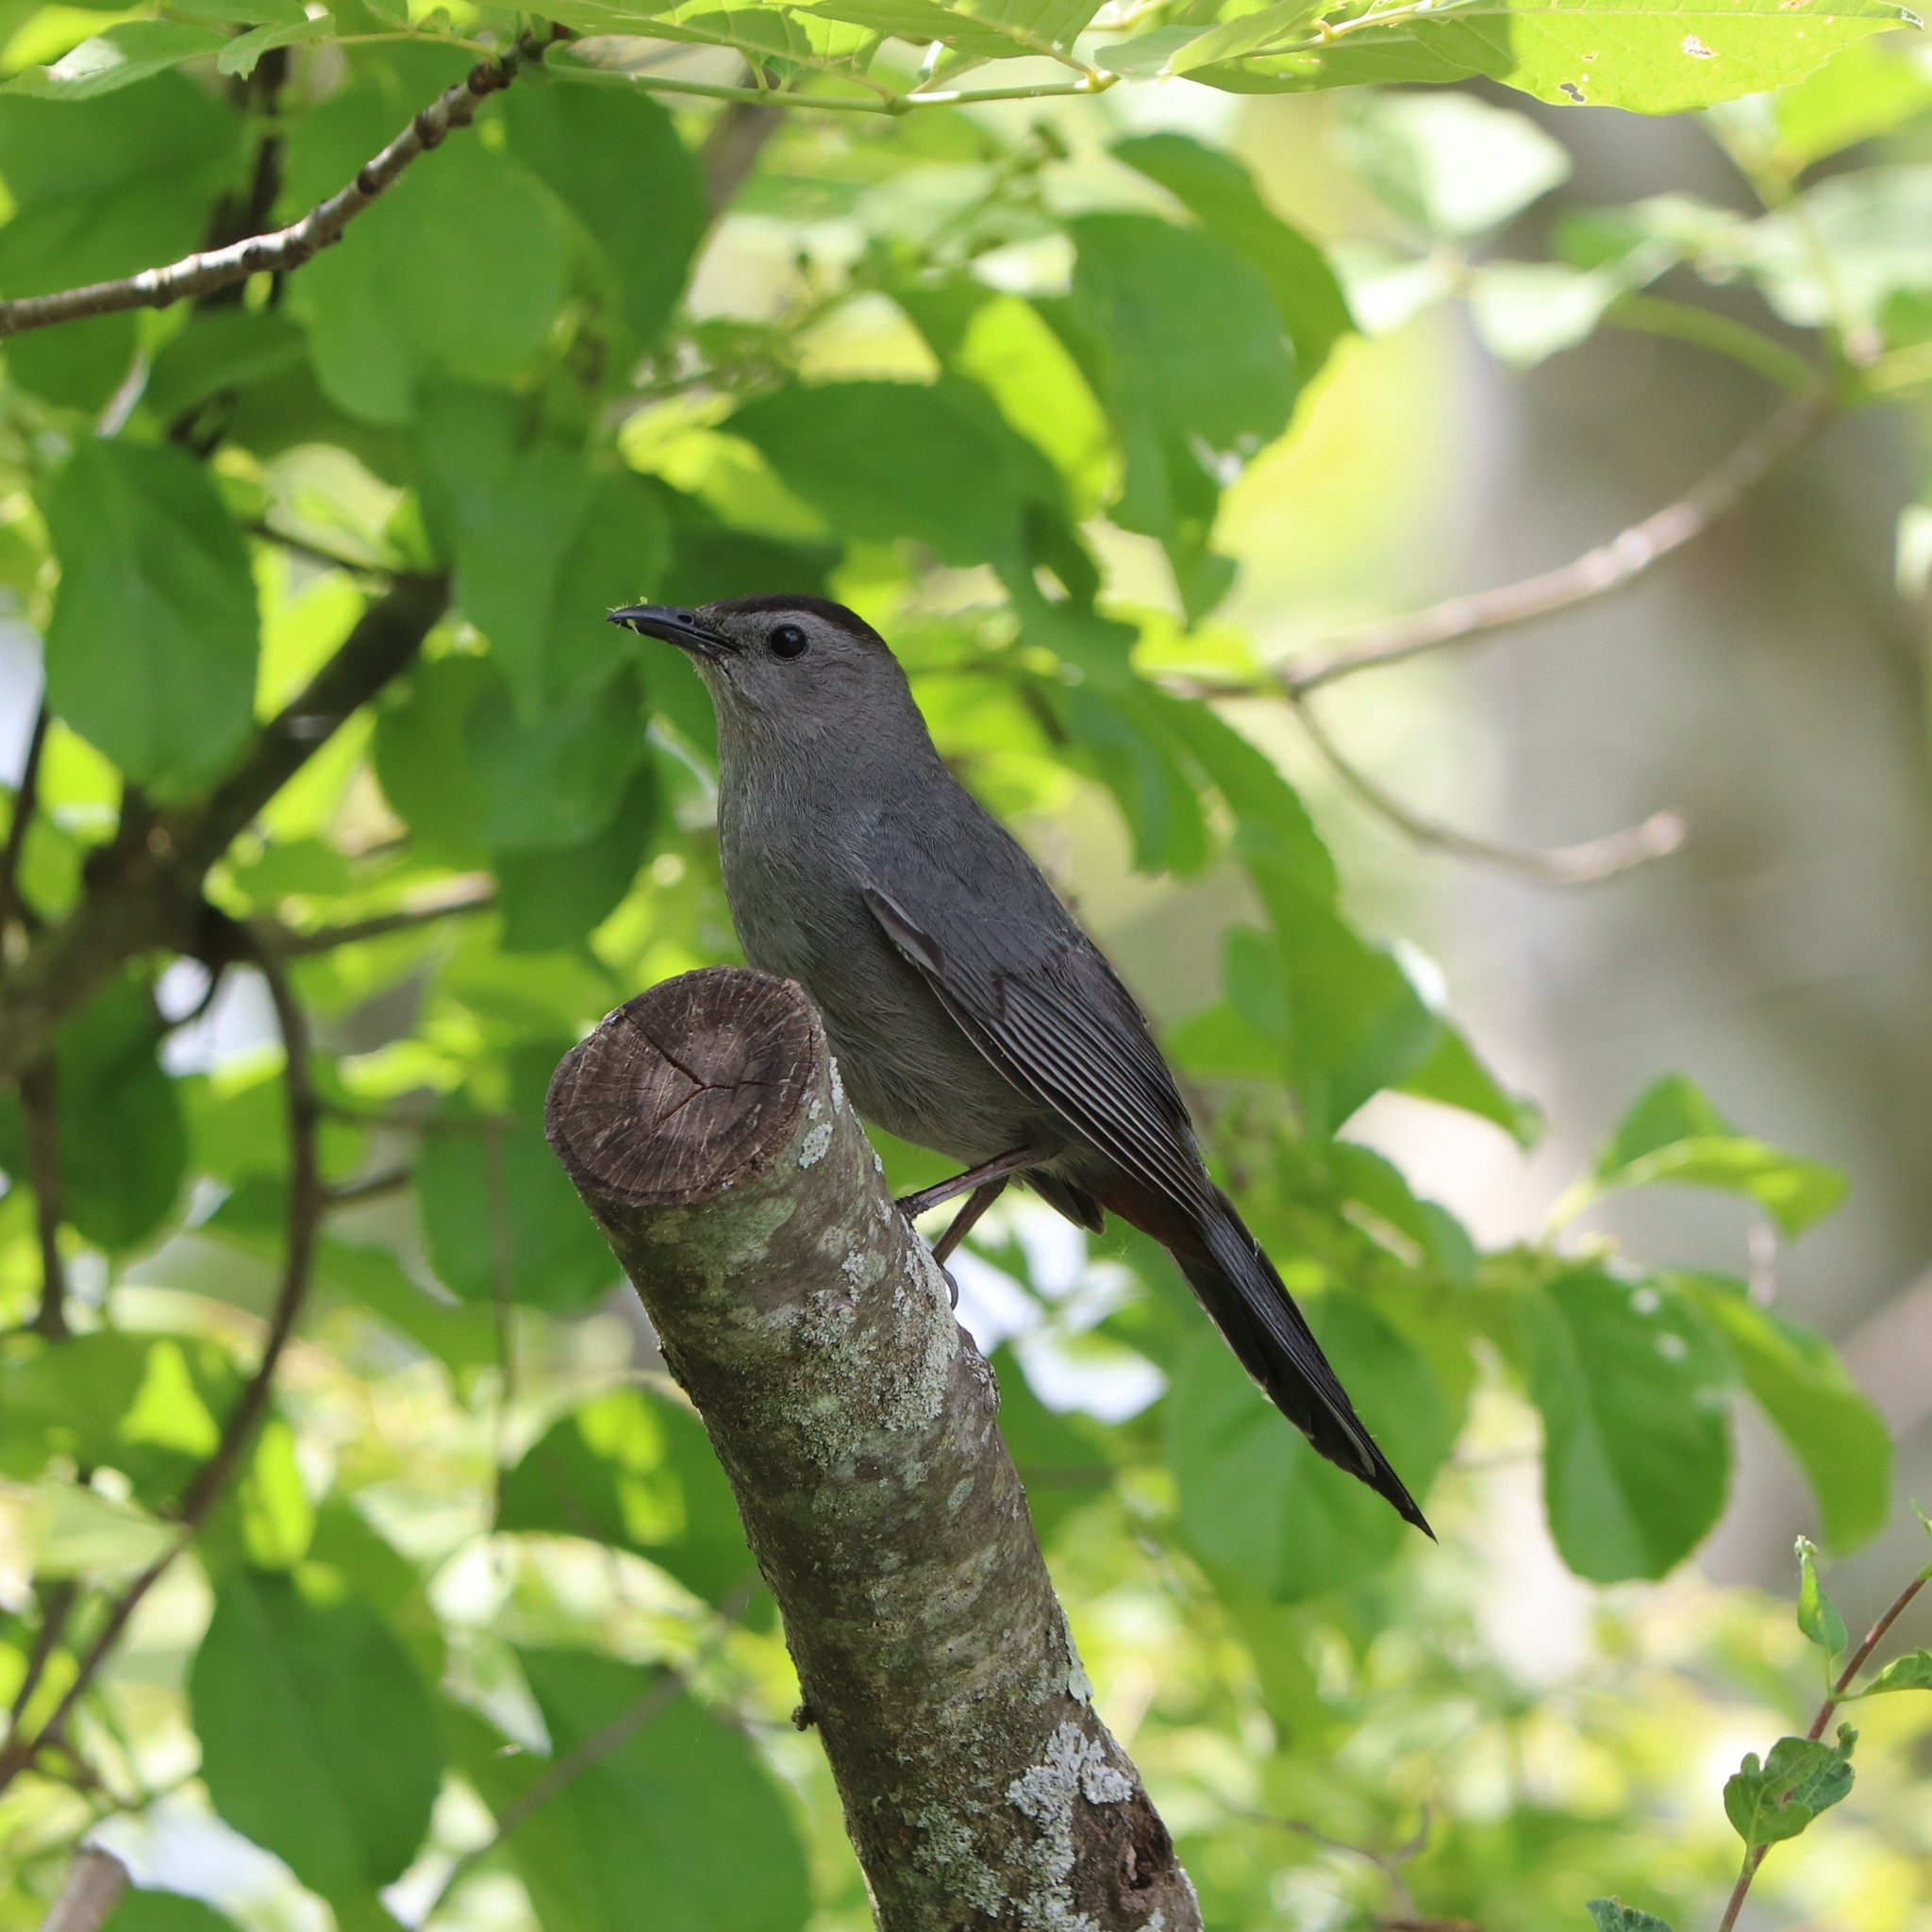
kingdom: Animalia
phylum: Chordata
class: Aves
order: Passeriformes
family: Mimidae
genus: Dumetella
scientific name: Dumetella carolinensis
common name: Gray catbird
